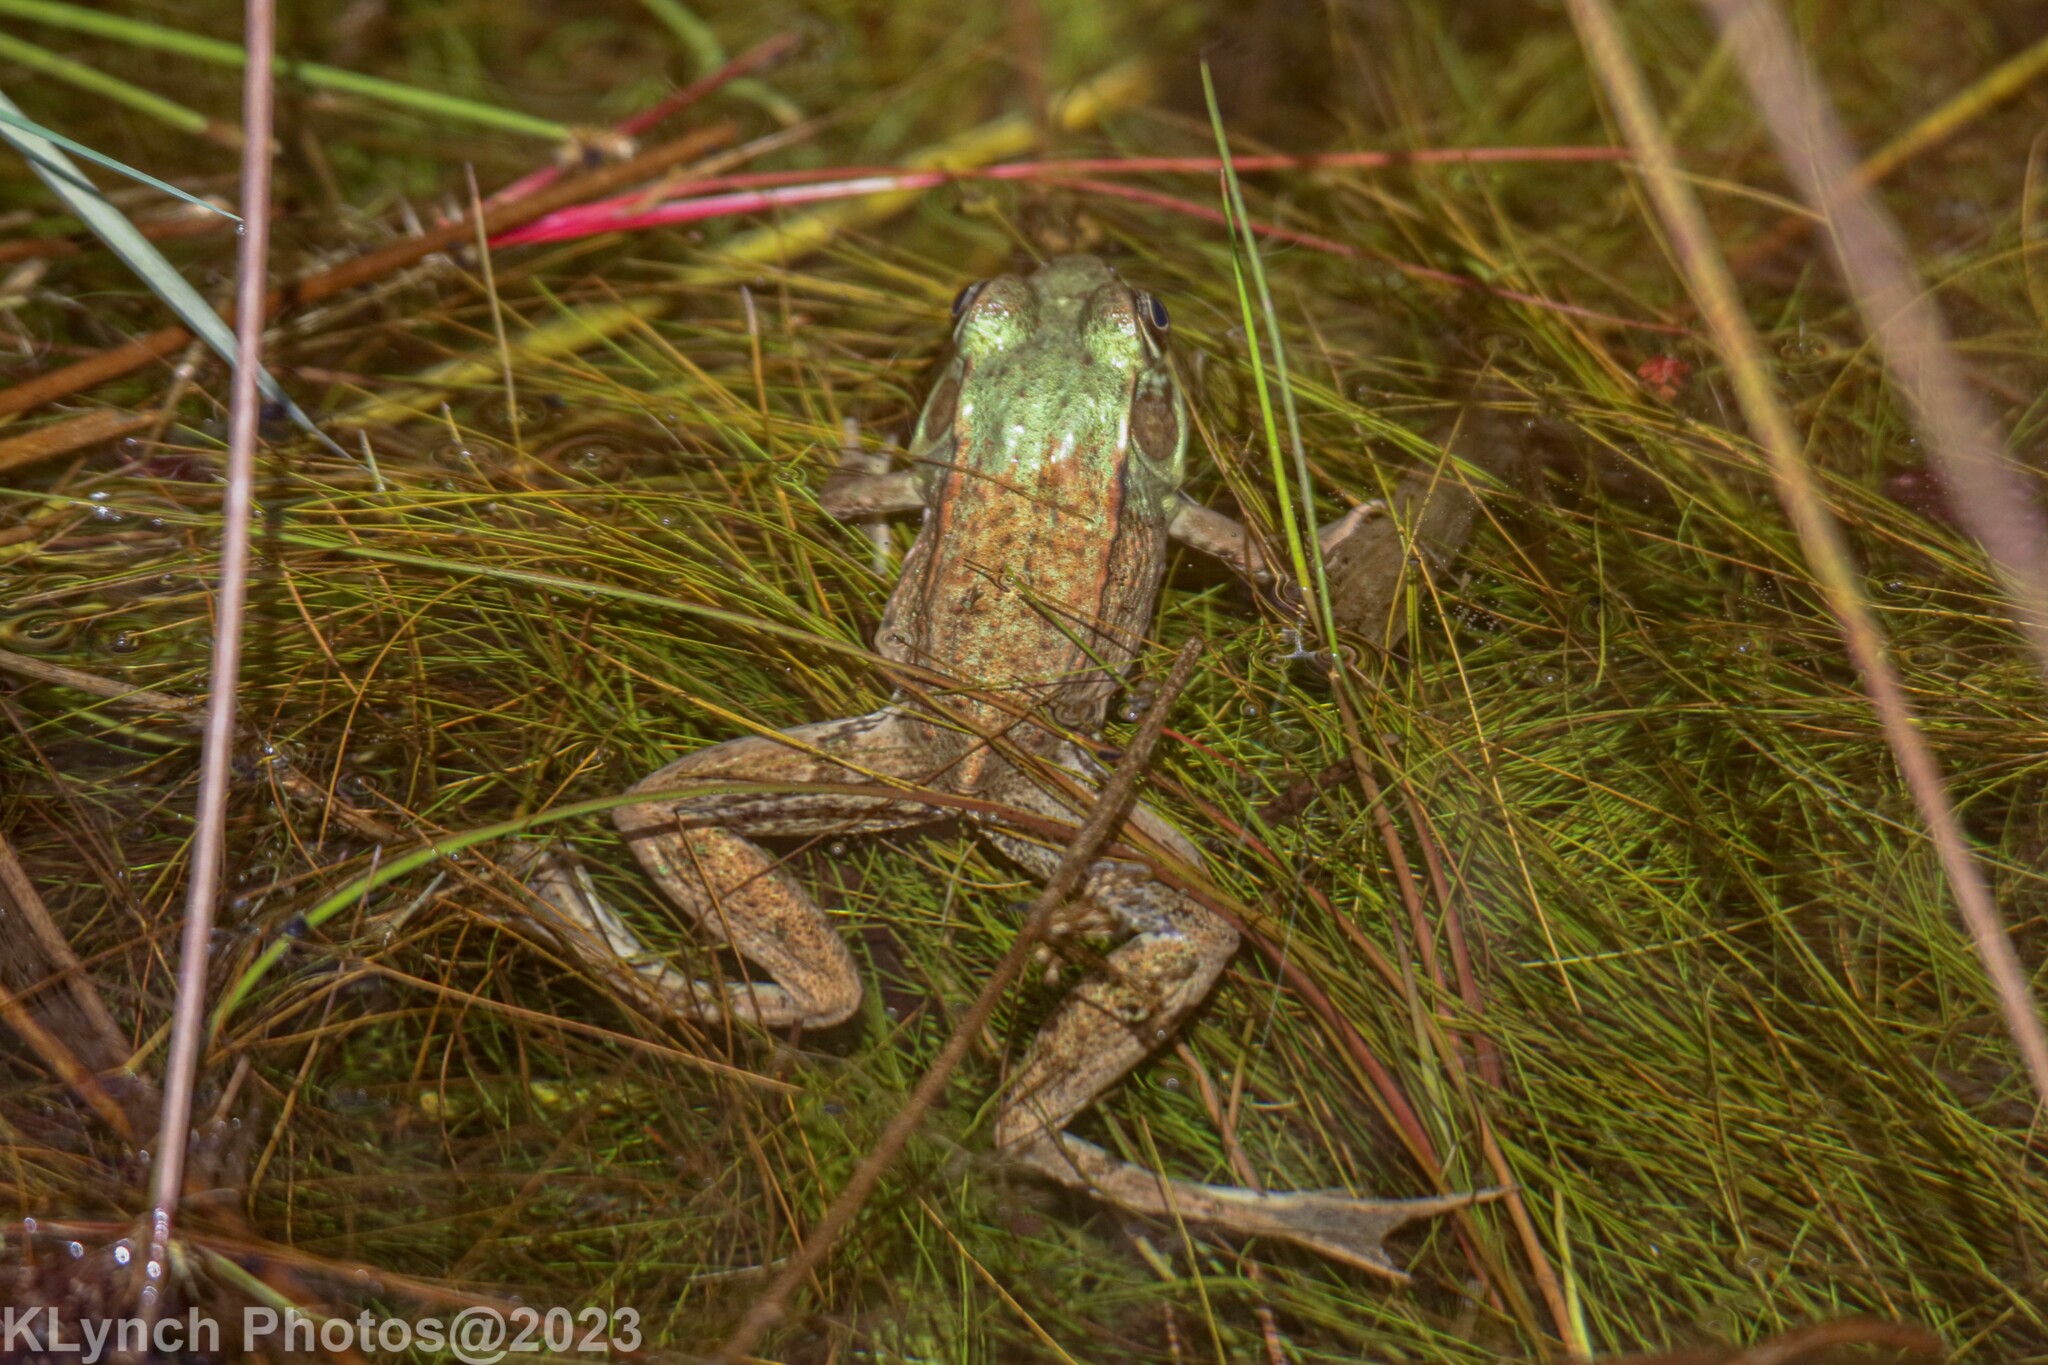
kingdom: Animalia
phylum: Chordata
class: Amphibia
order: Anura
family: Ranidae
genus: Lithobates
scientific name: Lithobates clamitans
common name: Green frog
